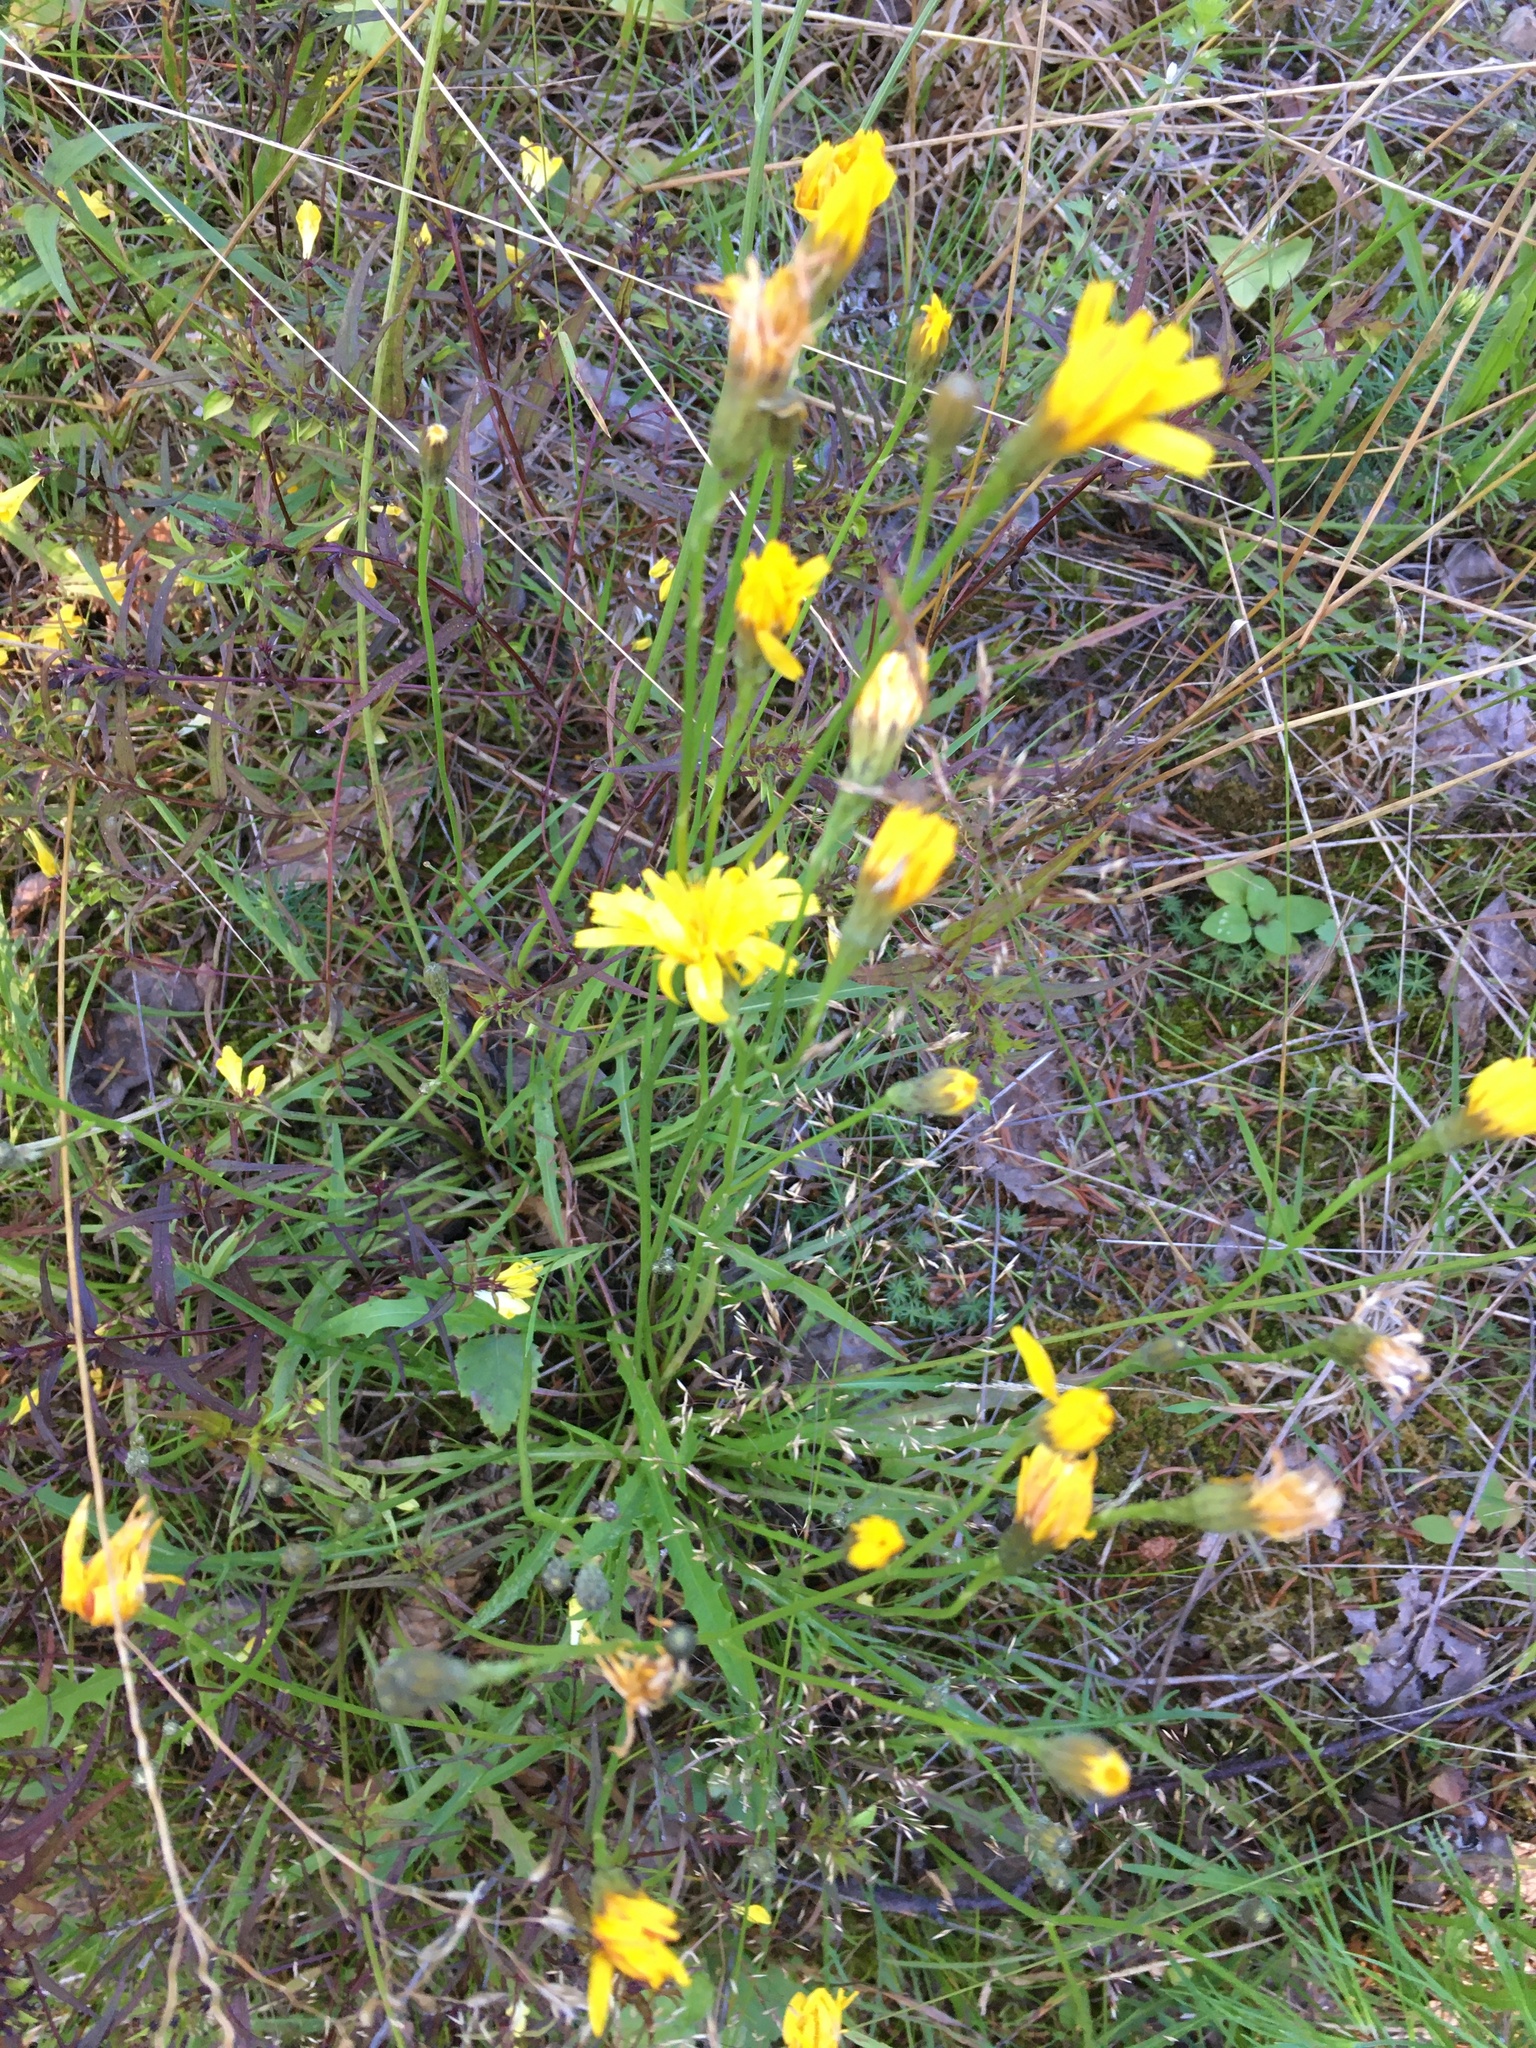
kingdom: Plantae
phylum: Tracheophyta
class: Magnoliopsida
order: Asterales
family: Asteraceae
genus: Scorzoneroides
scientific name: Scorzoneroides autumnalis
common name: Autumn hawkbit
